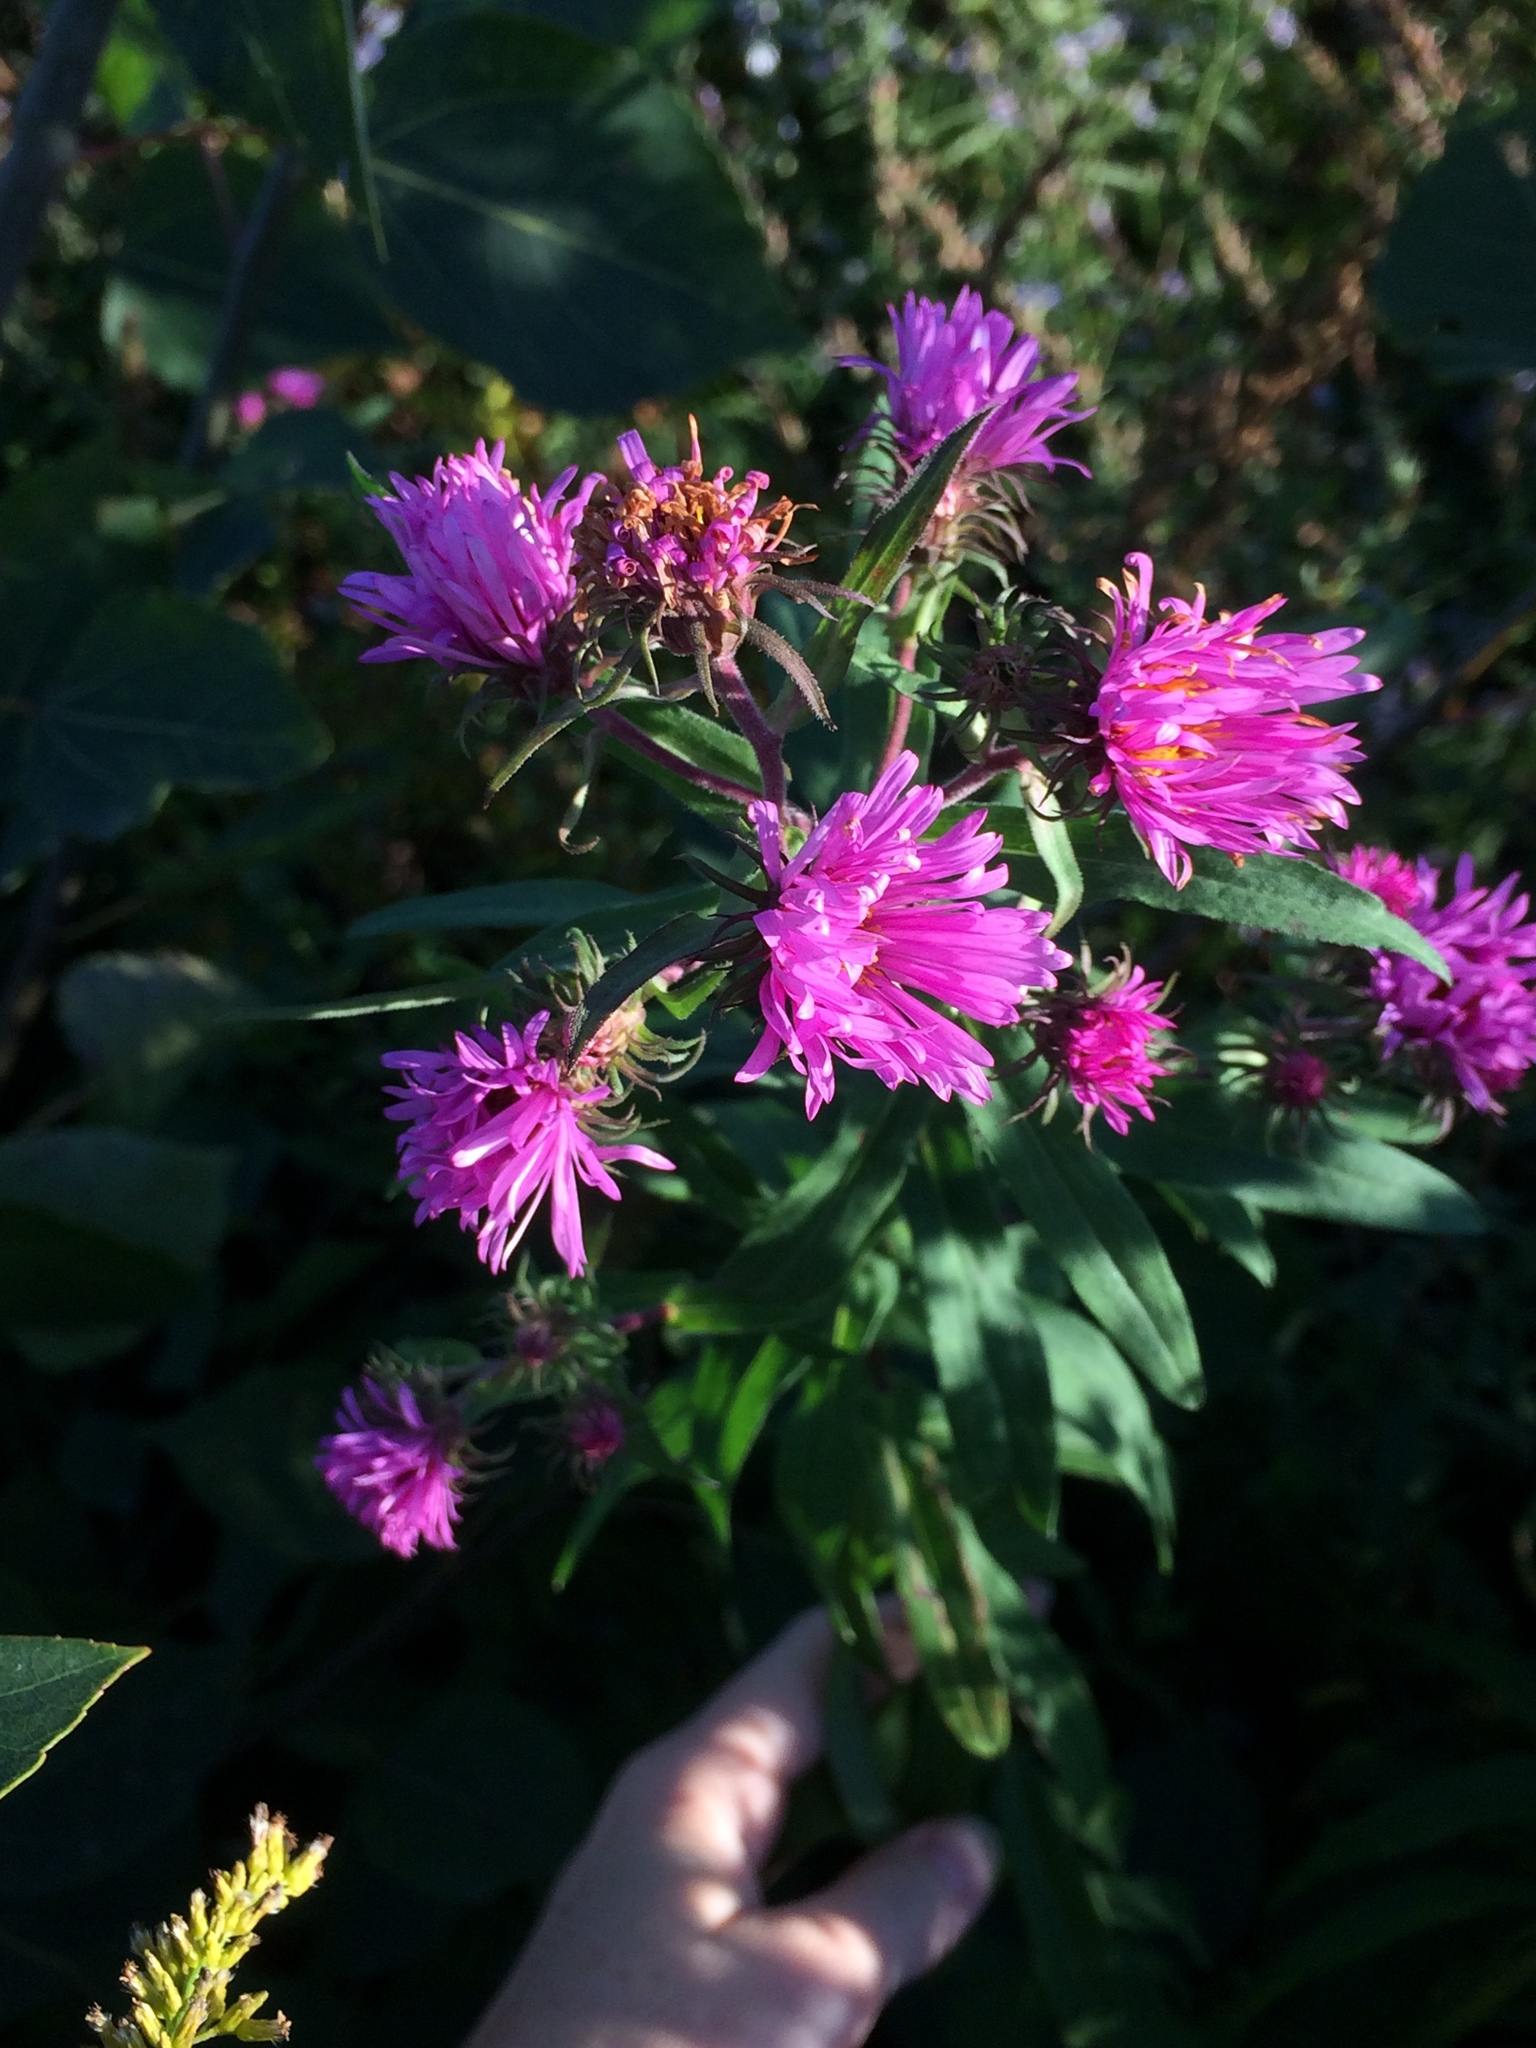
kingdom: Plantae
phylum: Tracheophyta
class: Magnoliopsida
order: Asterales
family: Asteraceae
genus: Symphyotrichum
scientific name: Symphyotrichum novae-angliae
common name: Michaelmas daisy
